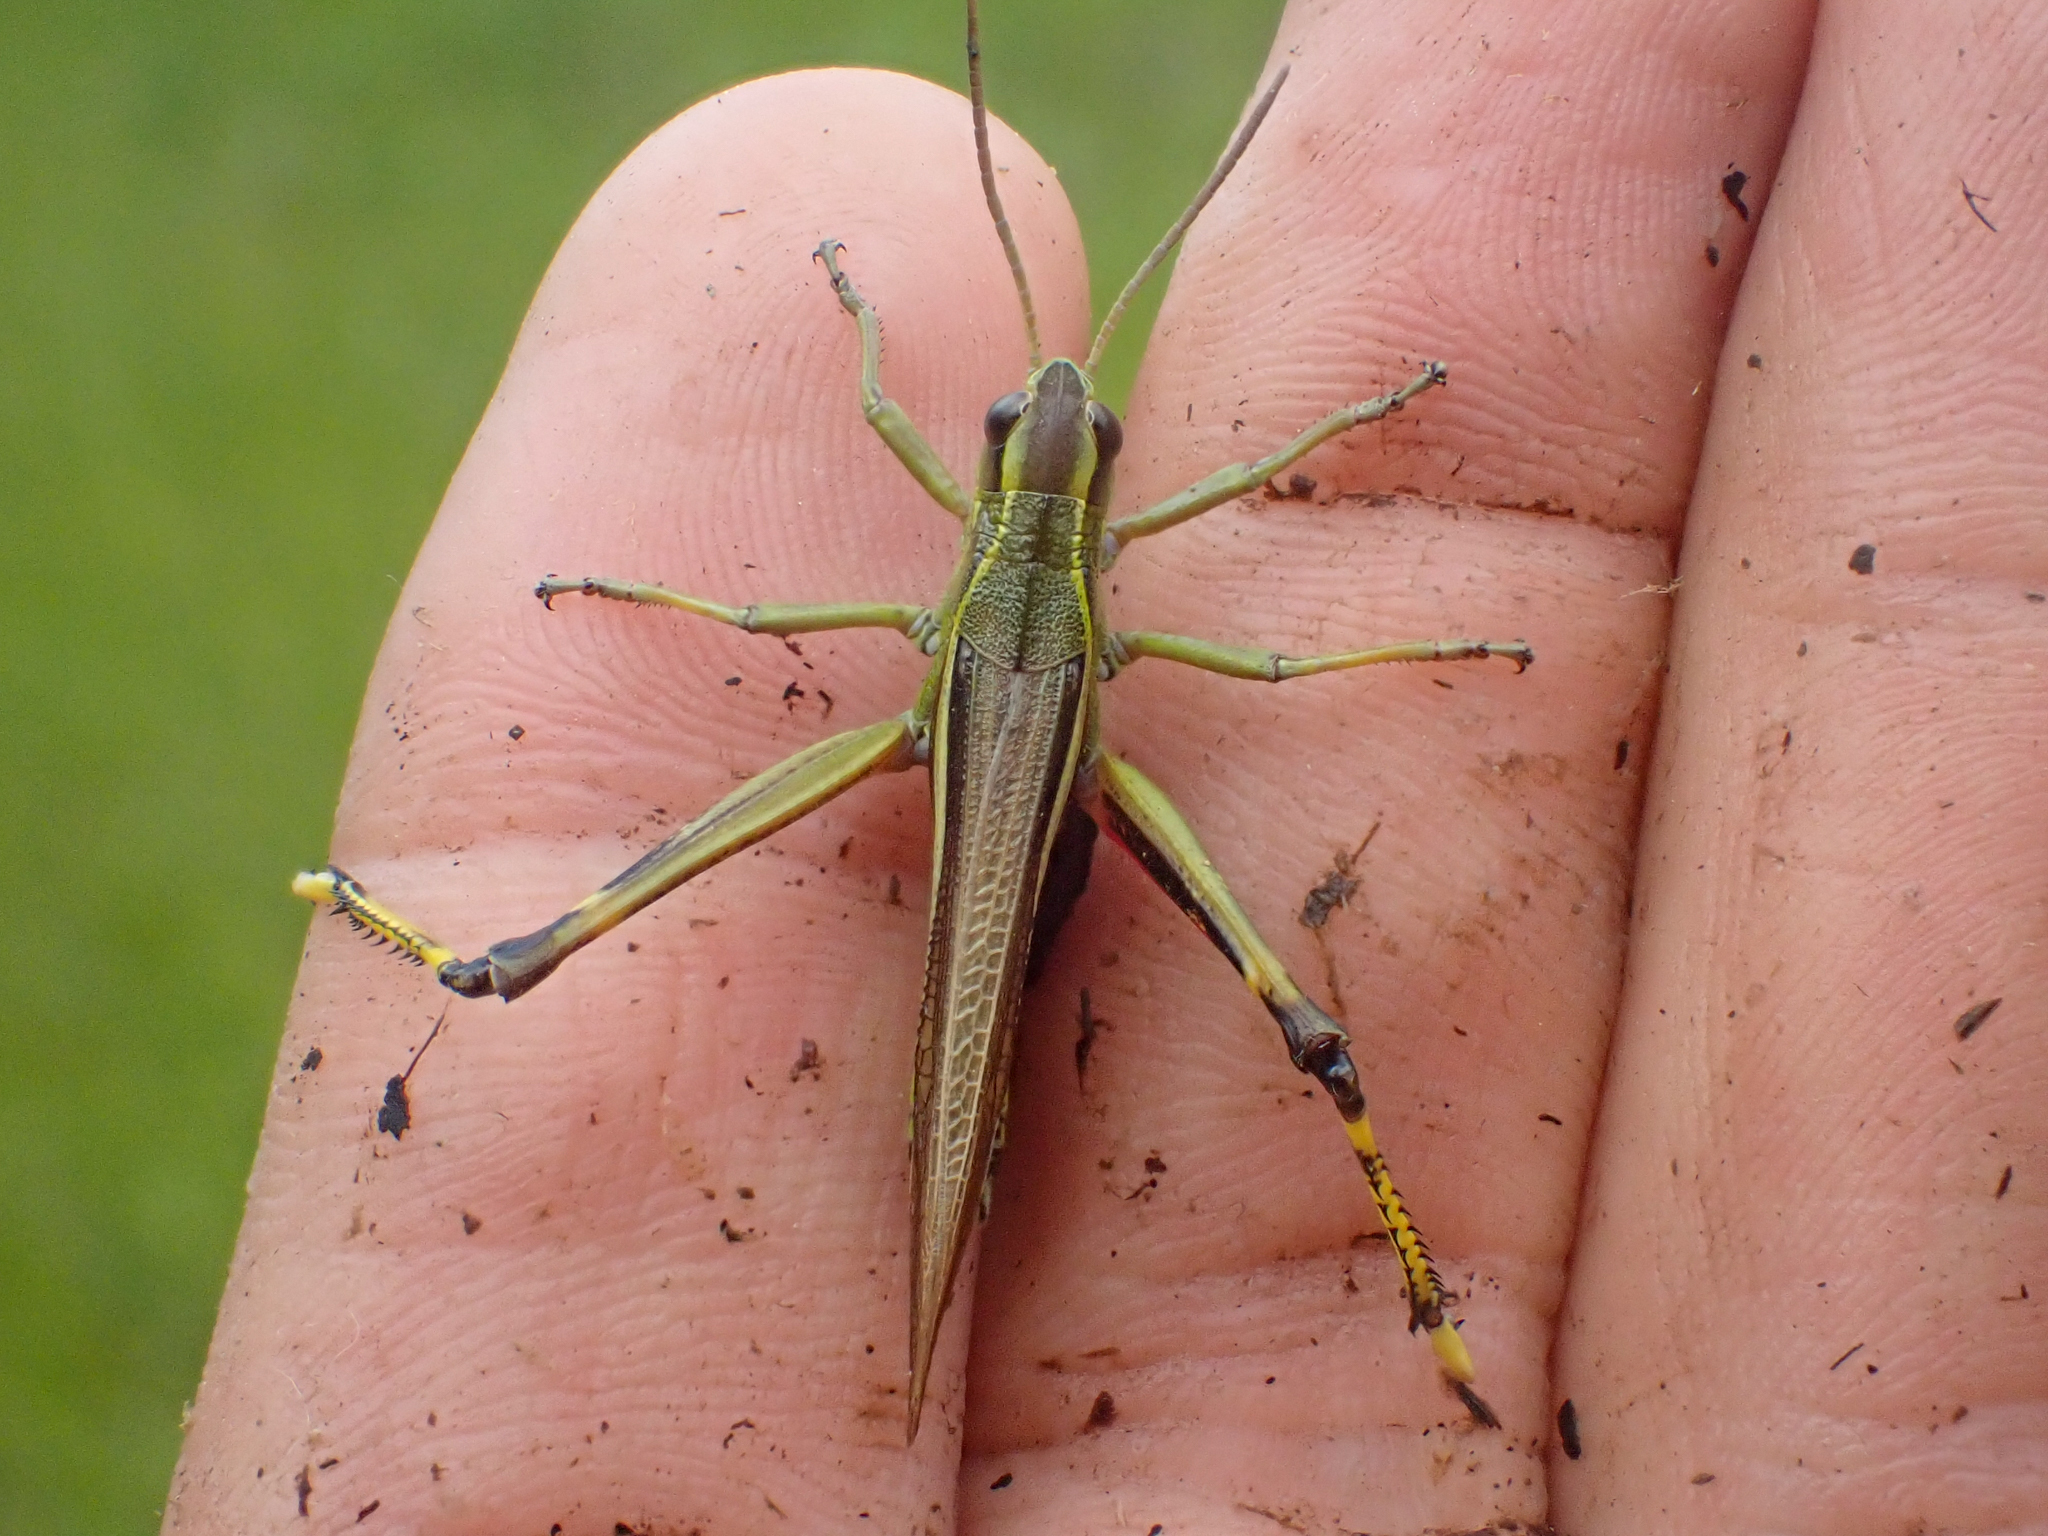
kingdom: Animalia
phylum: Arthropoda
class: Insecta
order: Orthoptera
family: Acrididae
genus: Stethophyma
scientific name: Stethophyma lineatum
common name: Striped sedge locust
